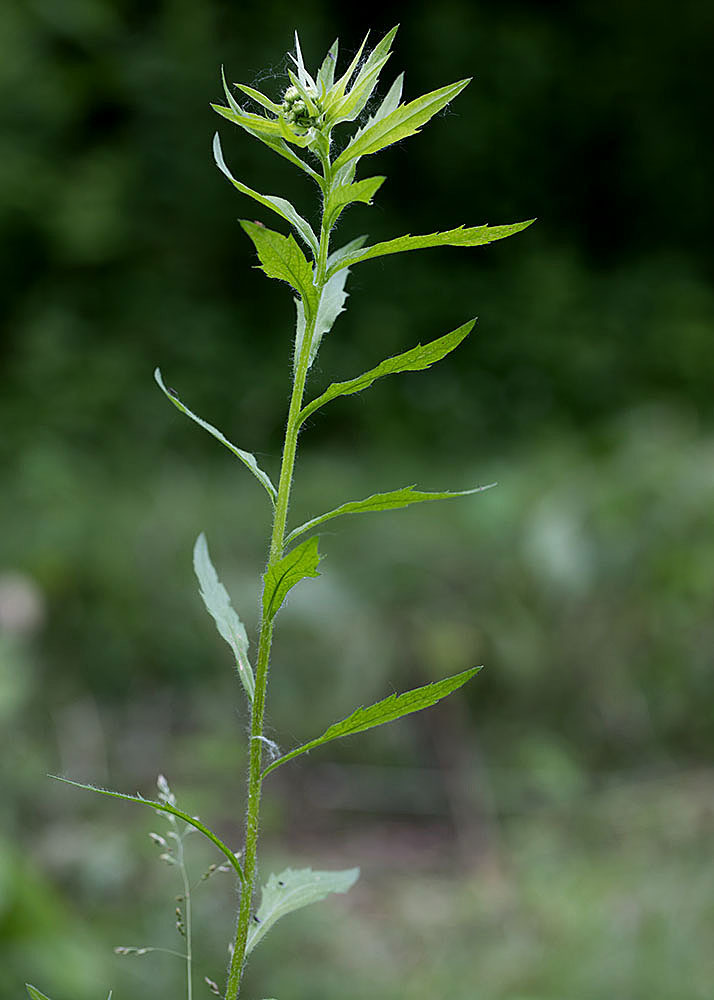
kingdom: Plantae
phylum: Tracheophyta
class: Magnoliopsida
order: Asterales
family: Asteraceae
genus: Erigeron
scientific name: Erigeron annuus
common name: Tall fleabane
